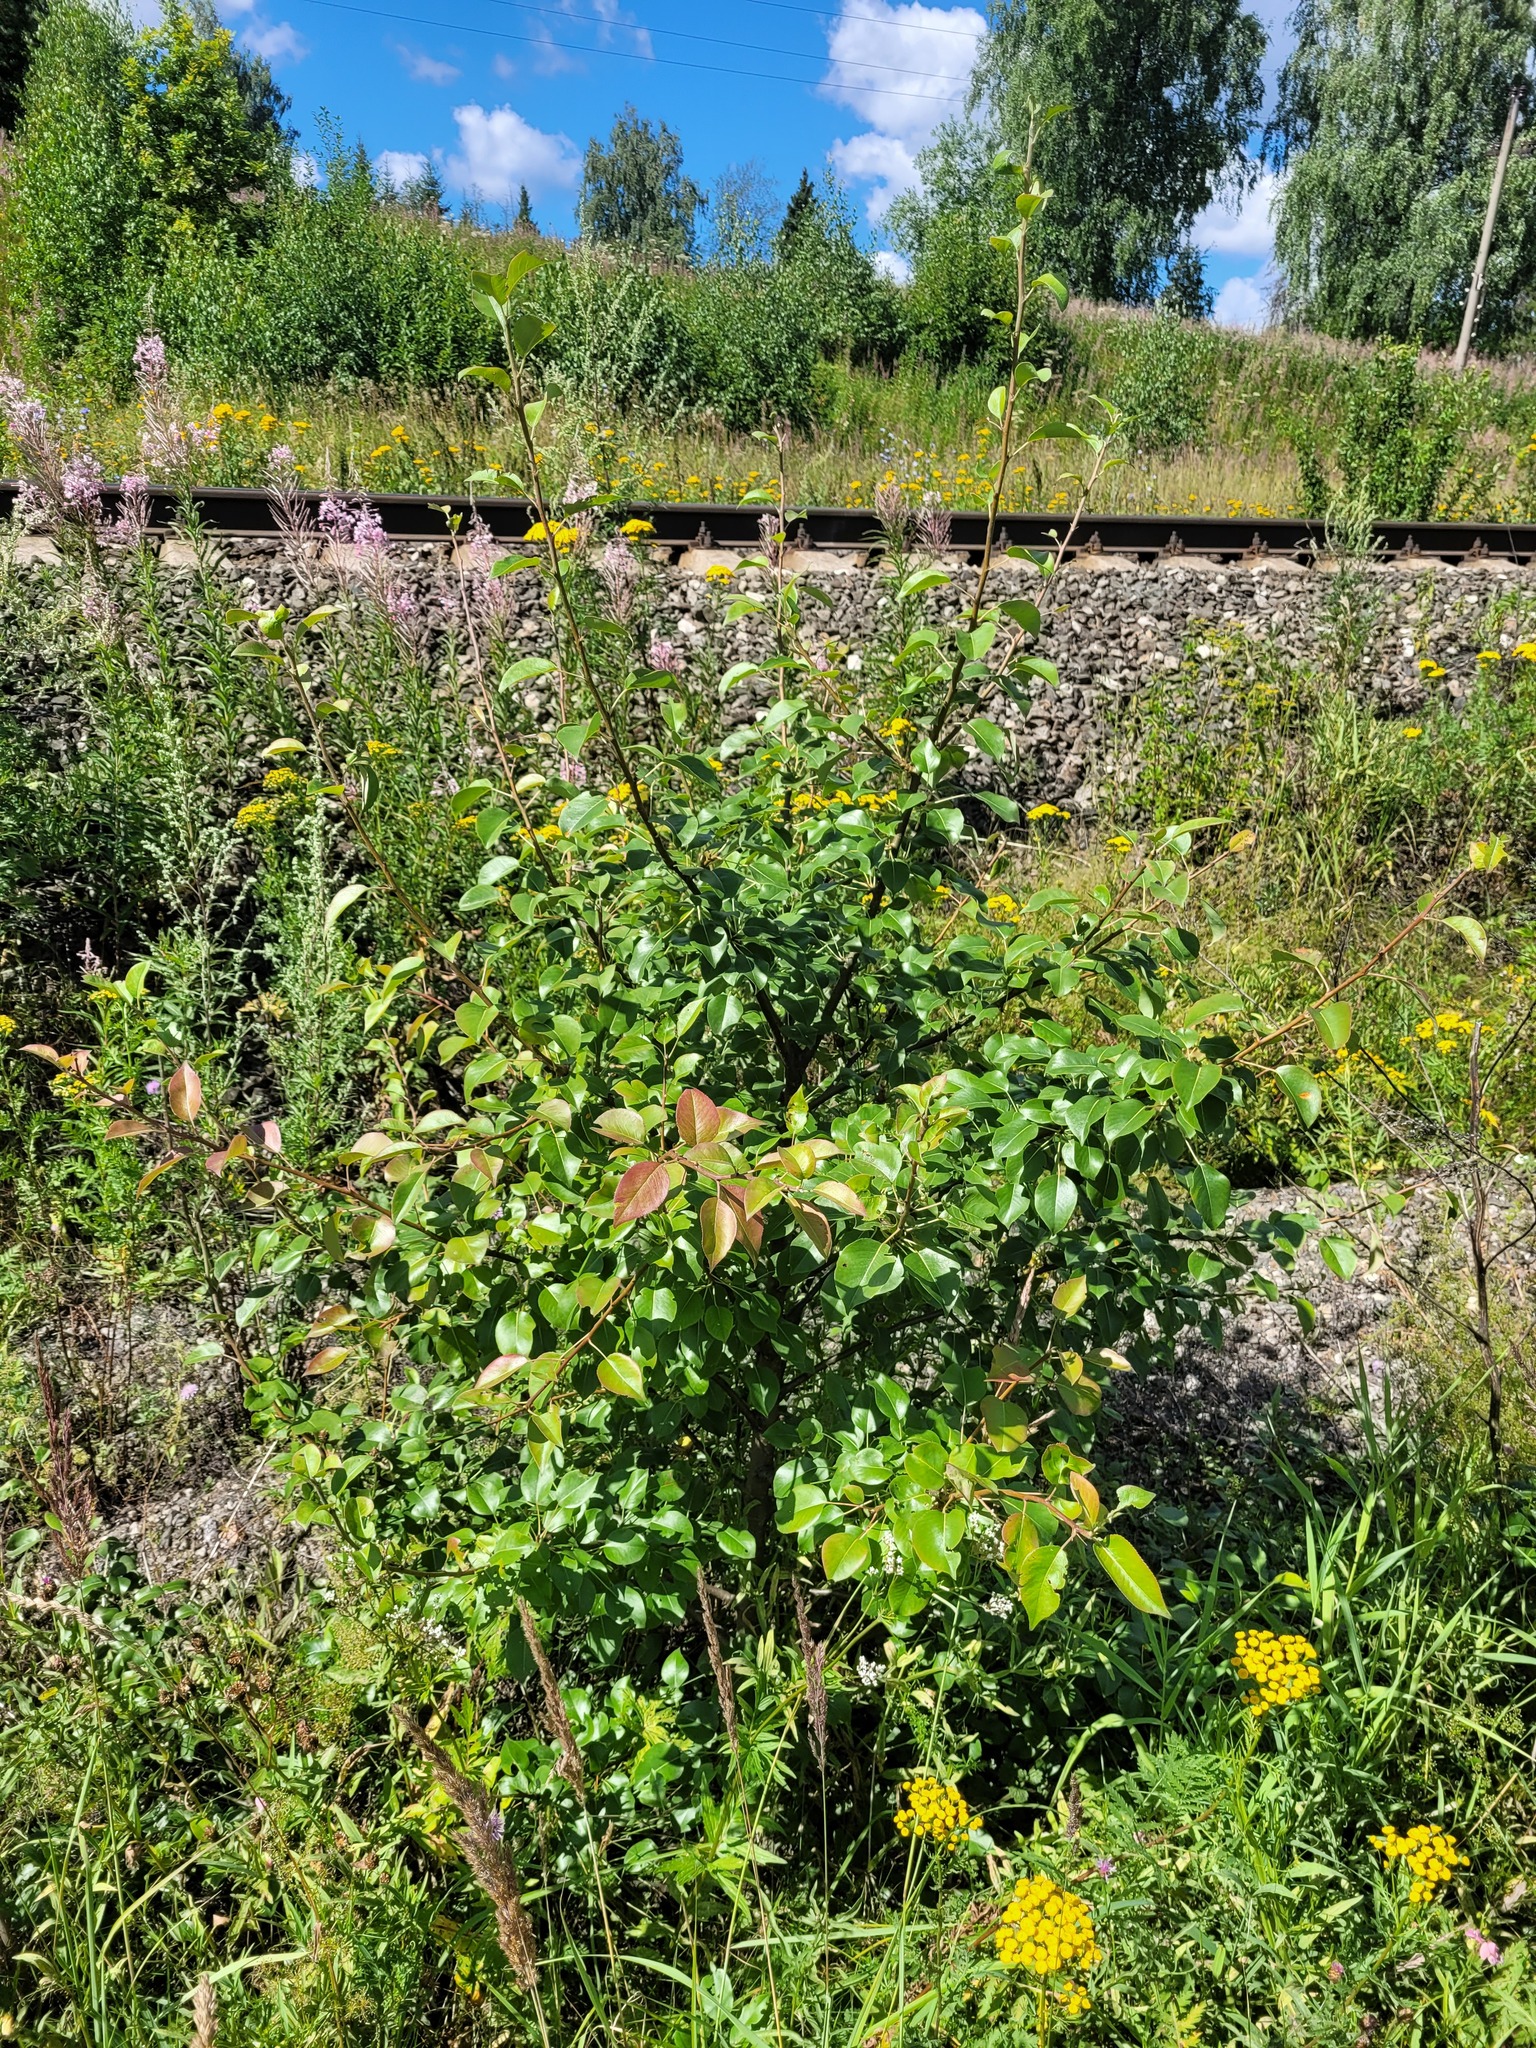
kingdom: Plantae
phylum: Tracheophyta
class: Magnoliopsida
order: Rosales
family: Rosaceae
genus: Pyrus
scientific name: Pyrus communis
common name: Pear
